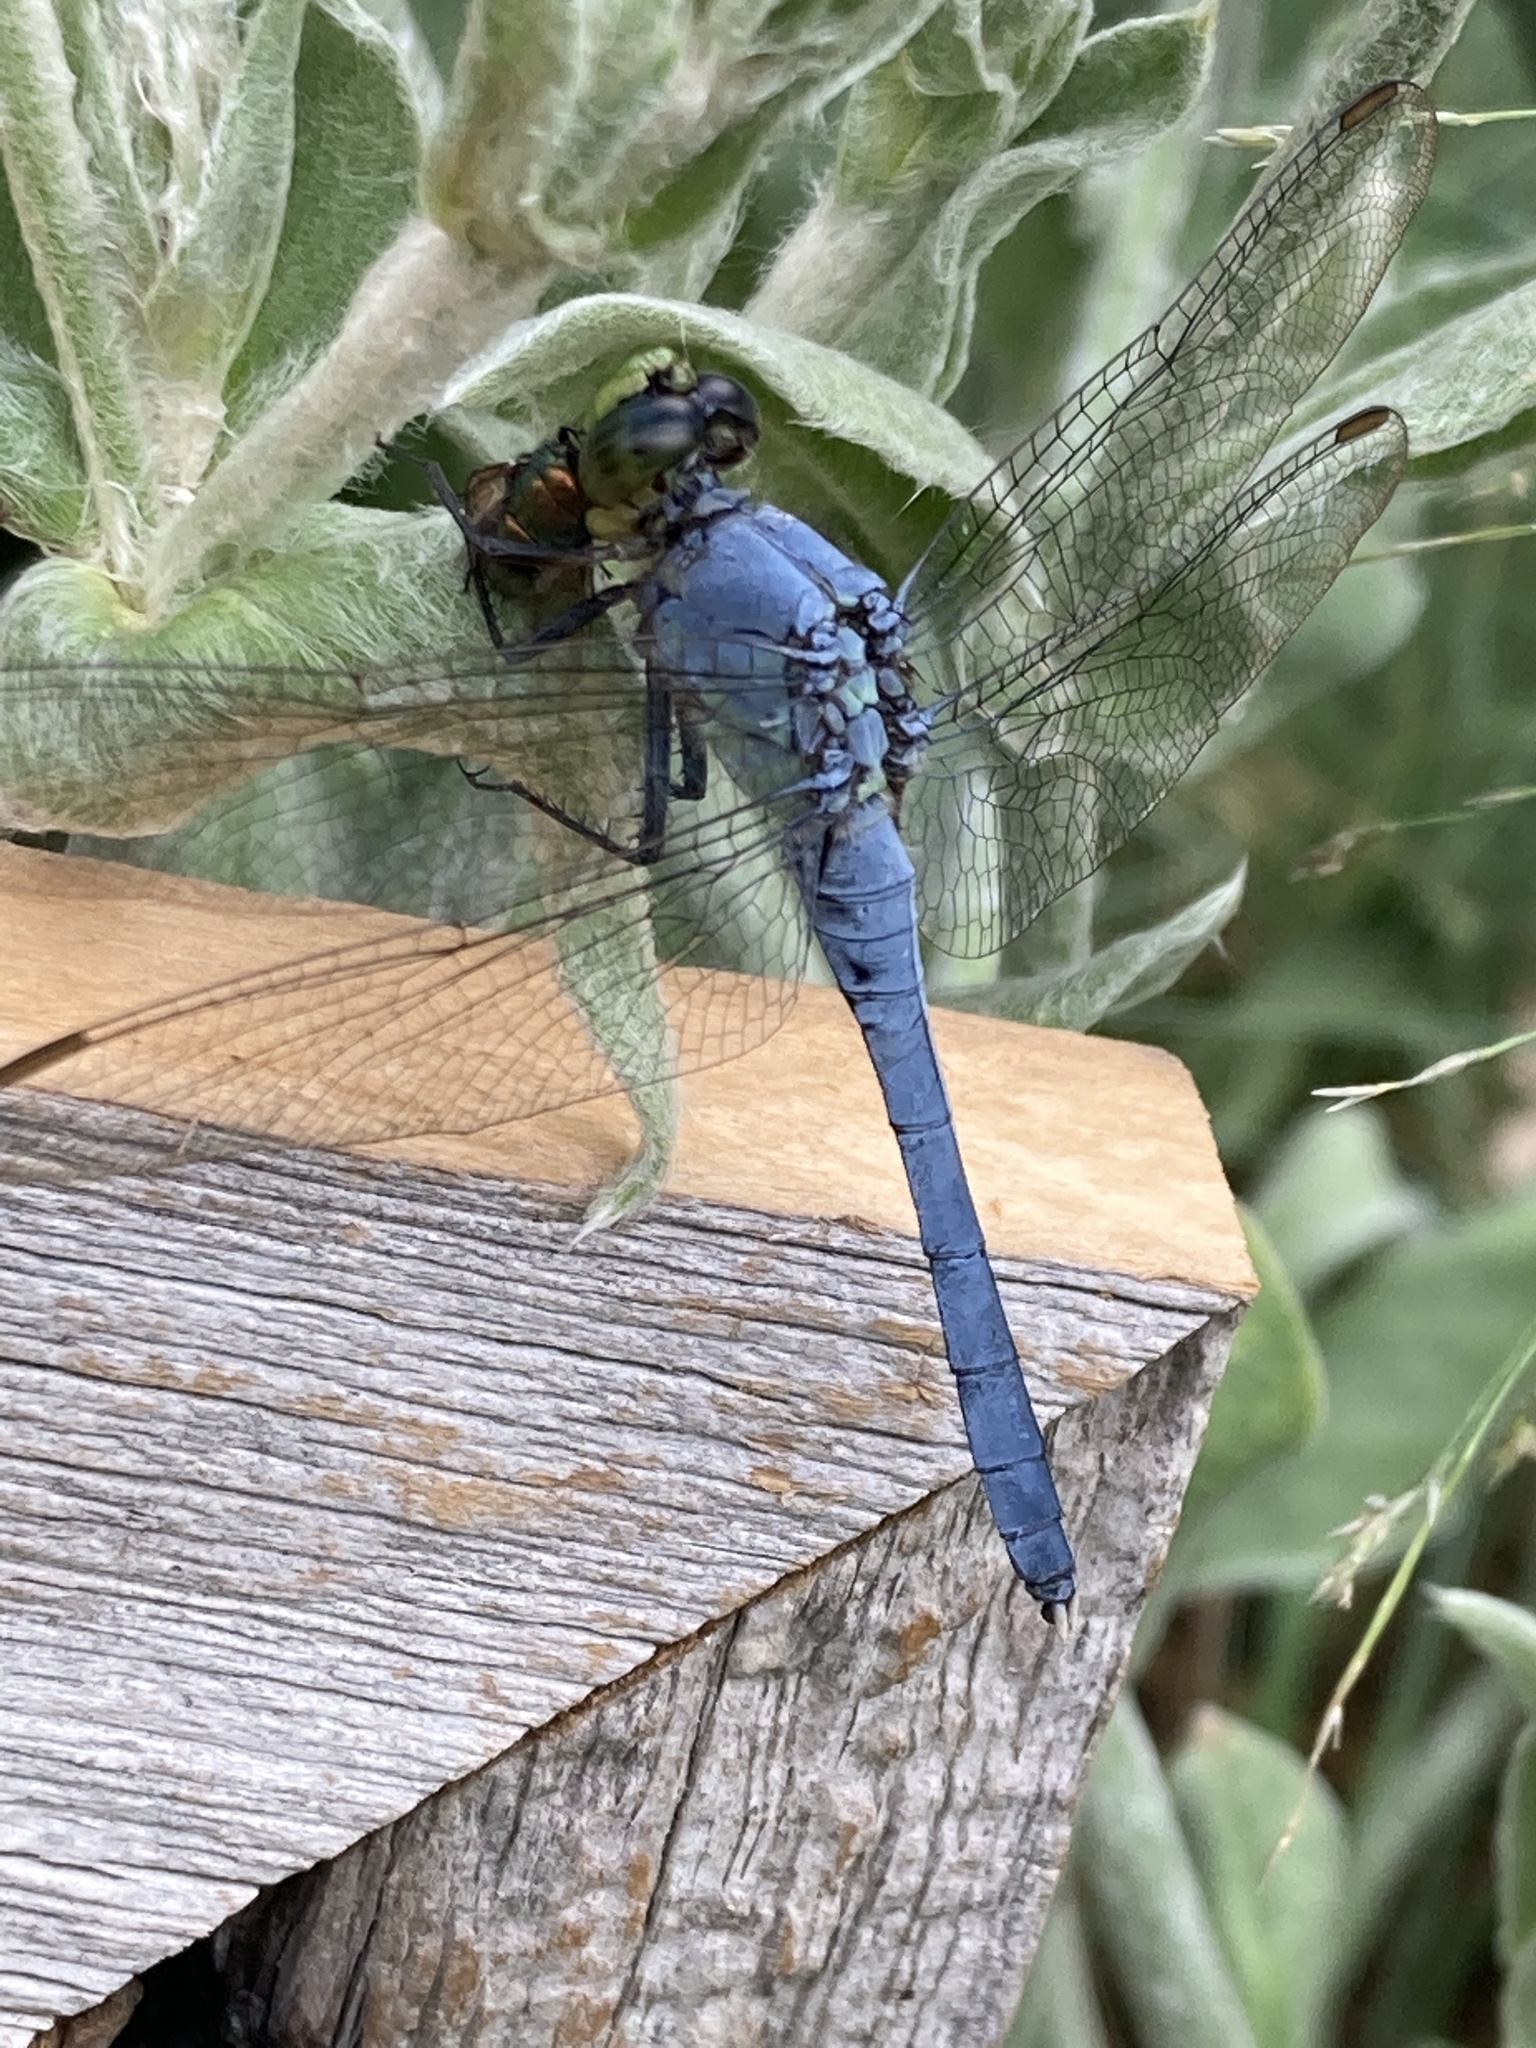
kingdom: Animalia
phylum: Arthropoda
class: Insecta
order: Odonata
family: Libellulidae
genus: Erythemis
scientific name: Erythemis simplicicollis
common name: Eastern pondhawk
